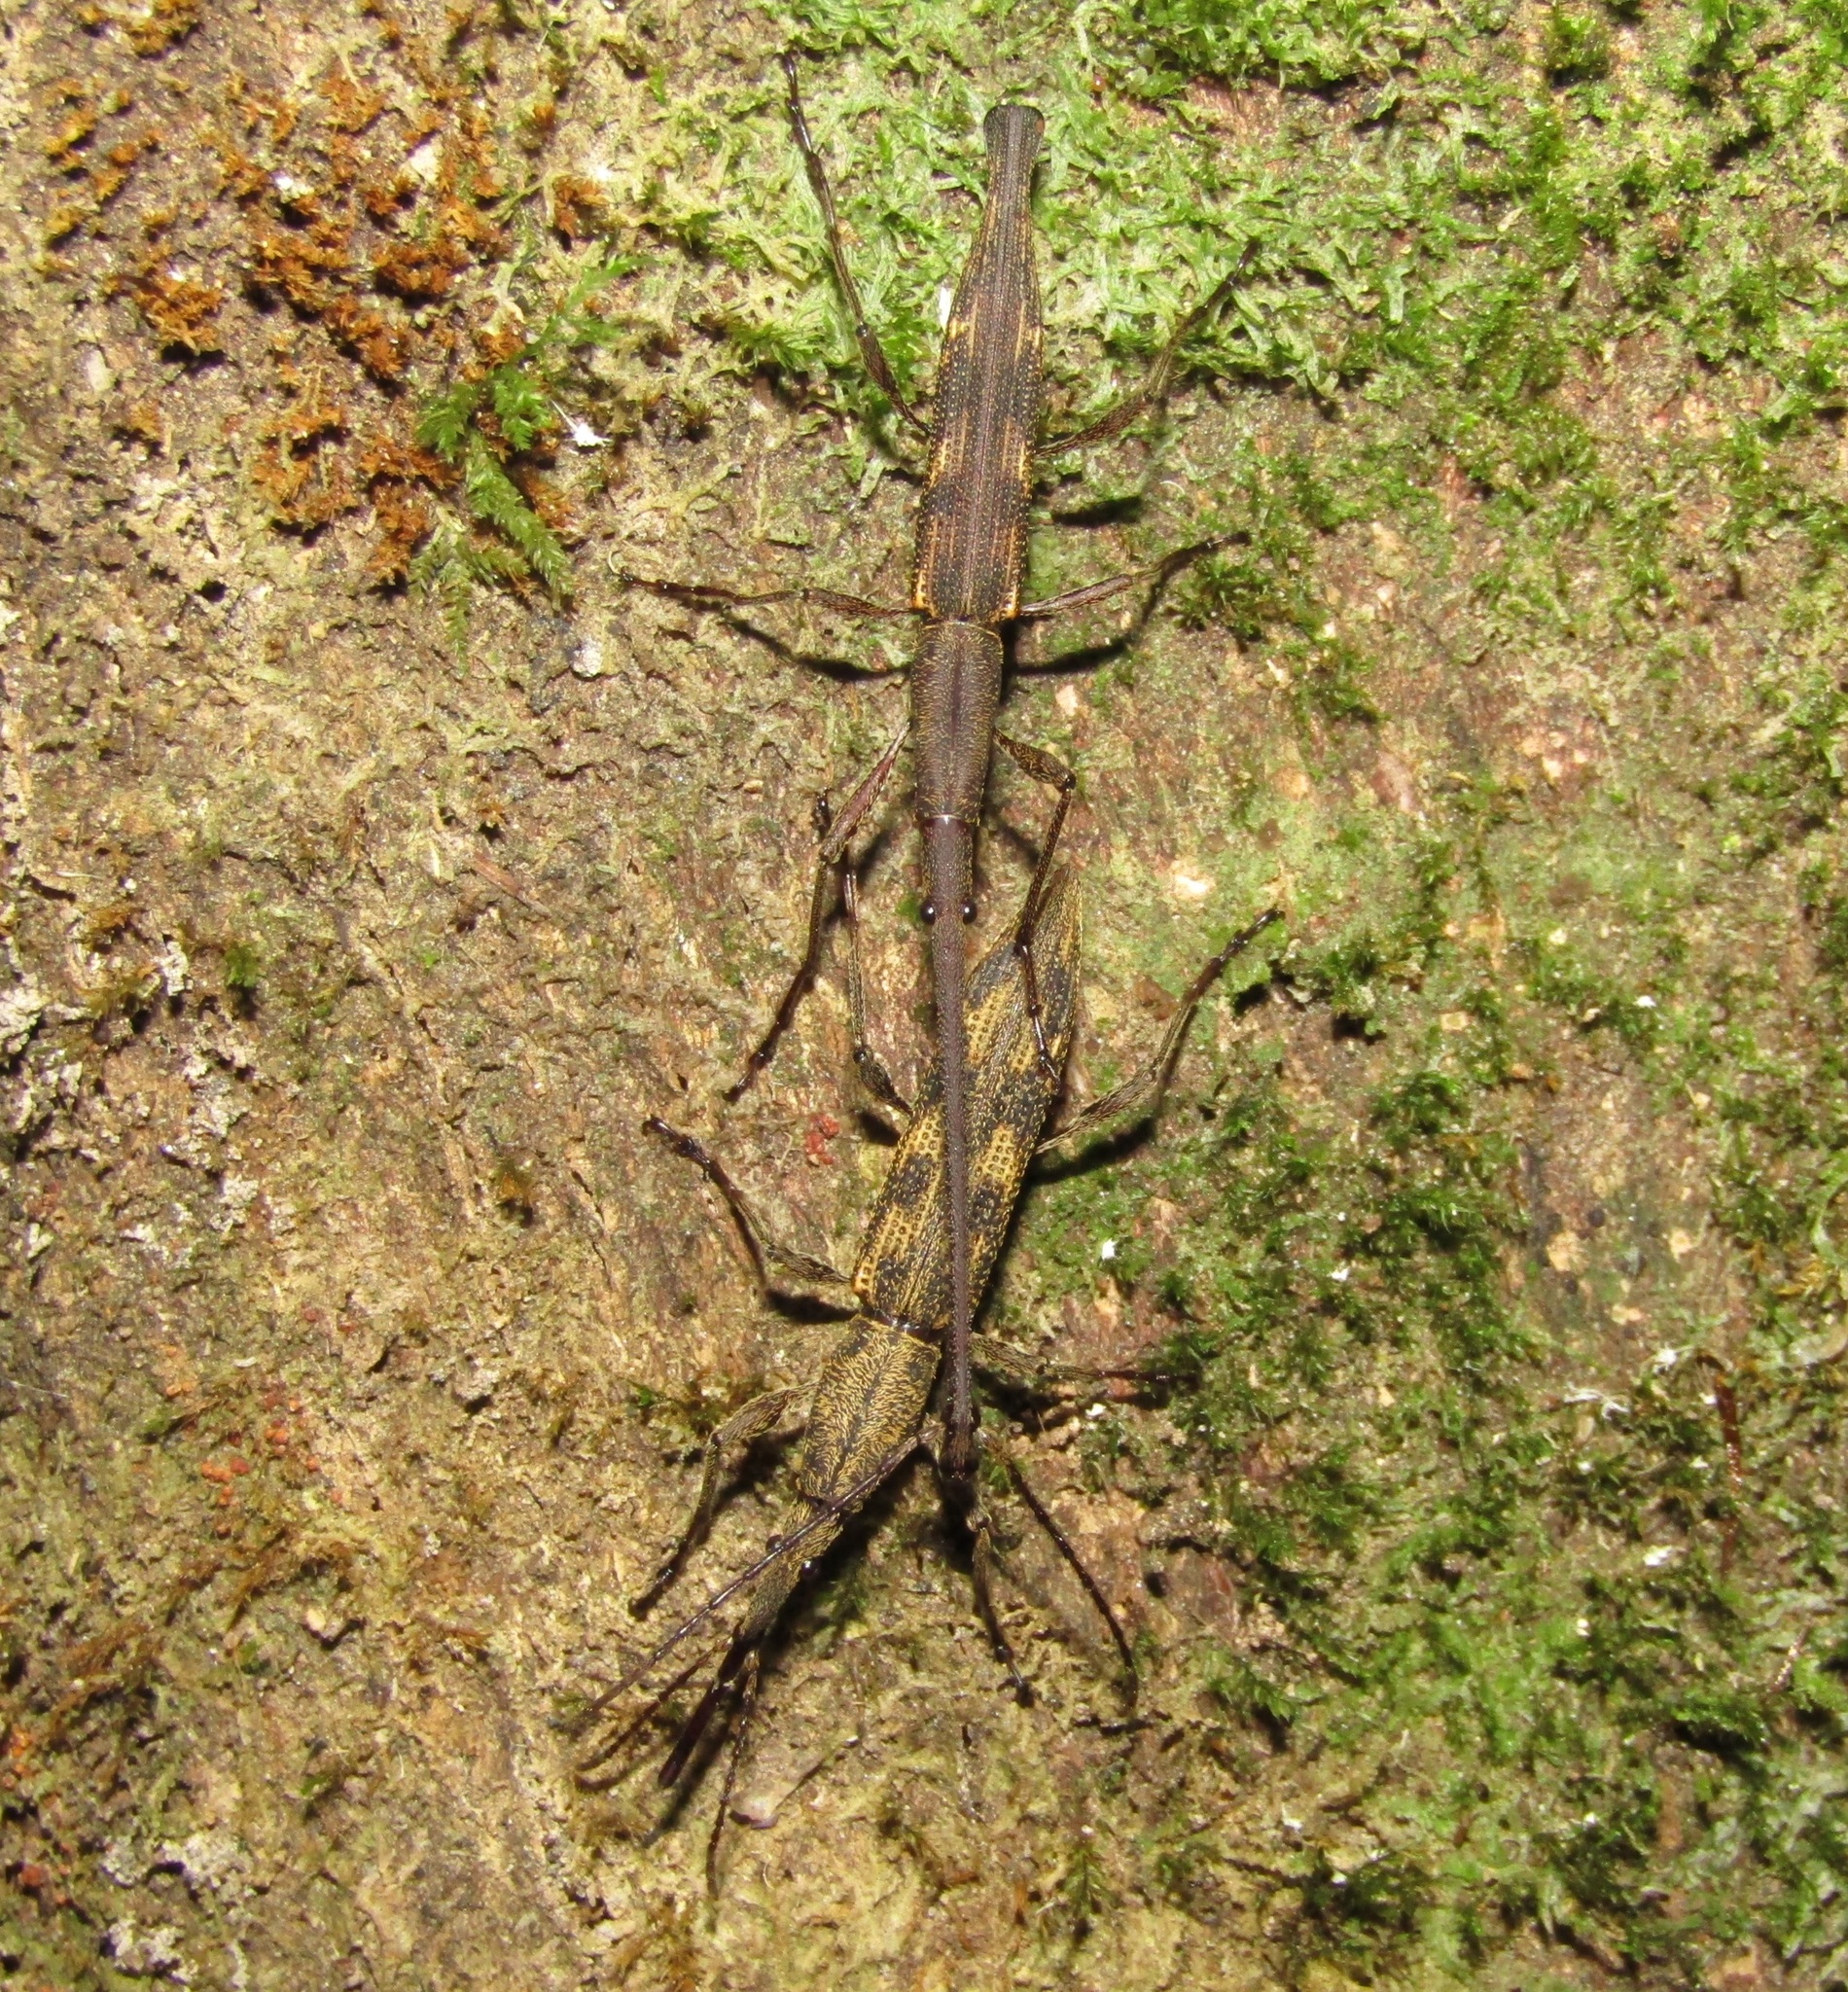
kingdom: Animalia
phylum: Arthropoda
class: Insecta
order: Coleoptera
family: Brentidae
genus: Lasiorhynchus
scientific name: Lasiorhynchus barbicornis
